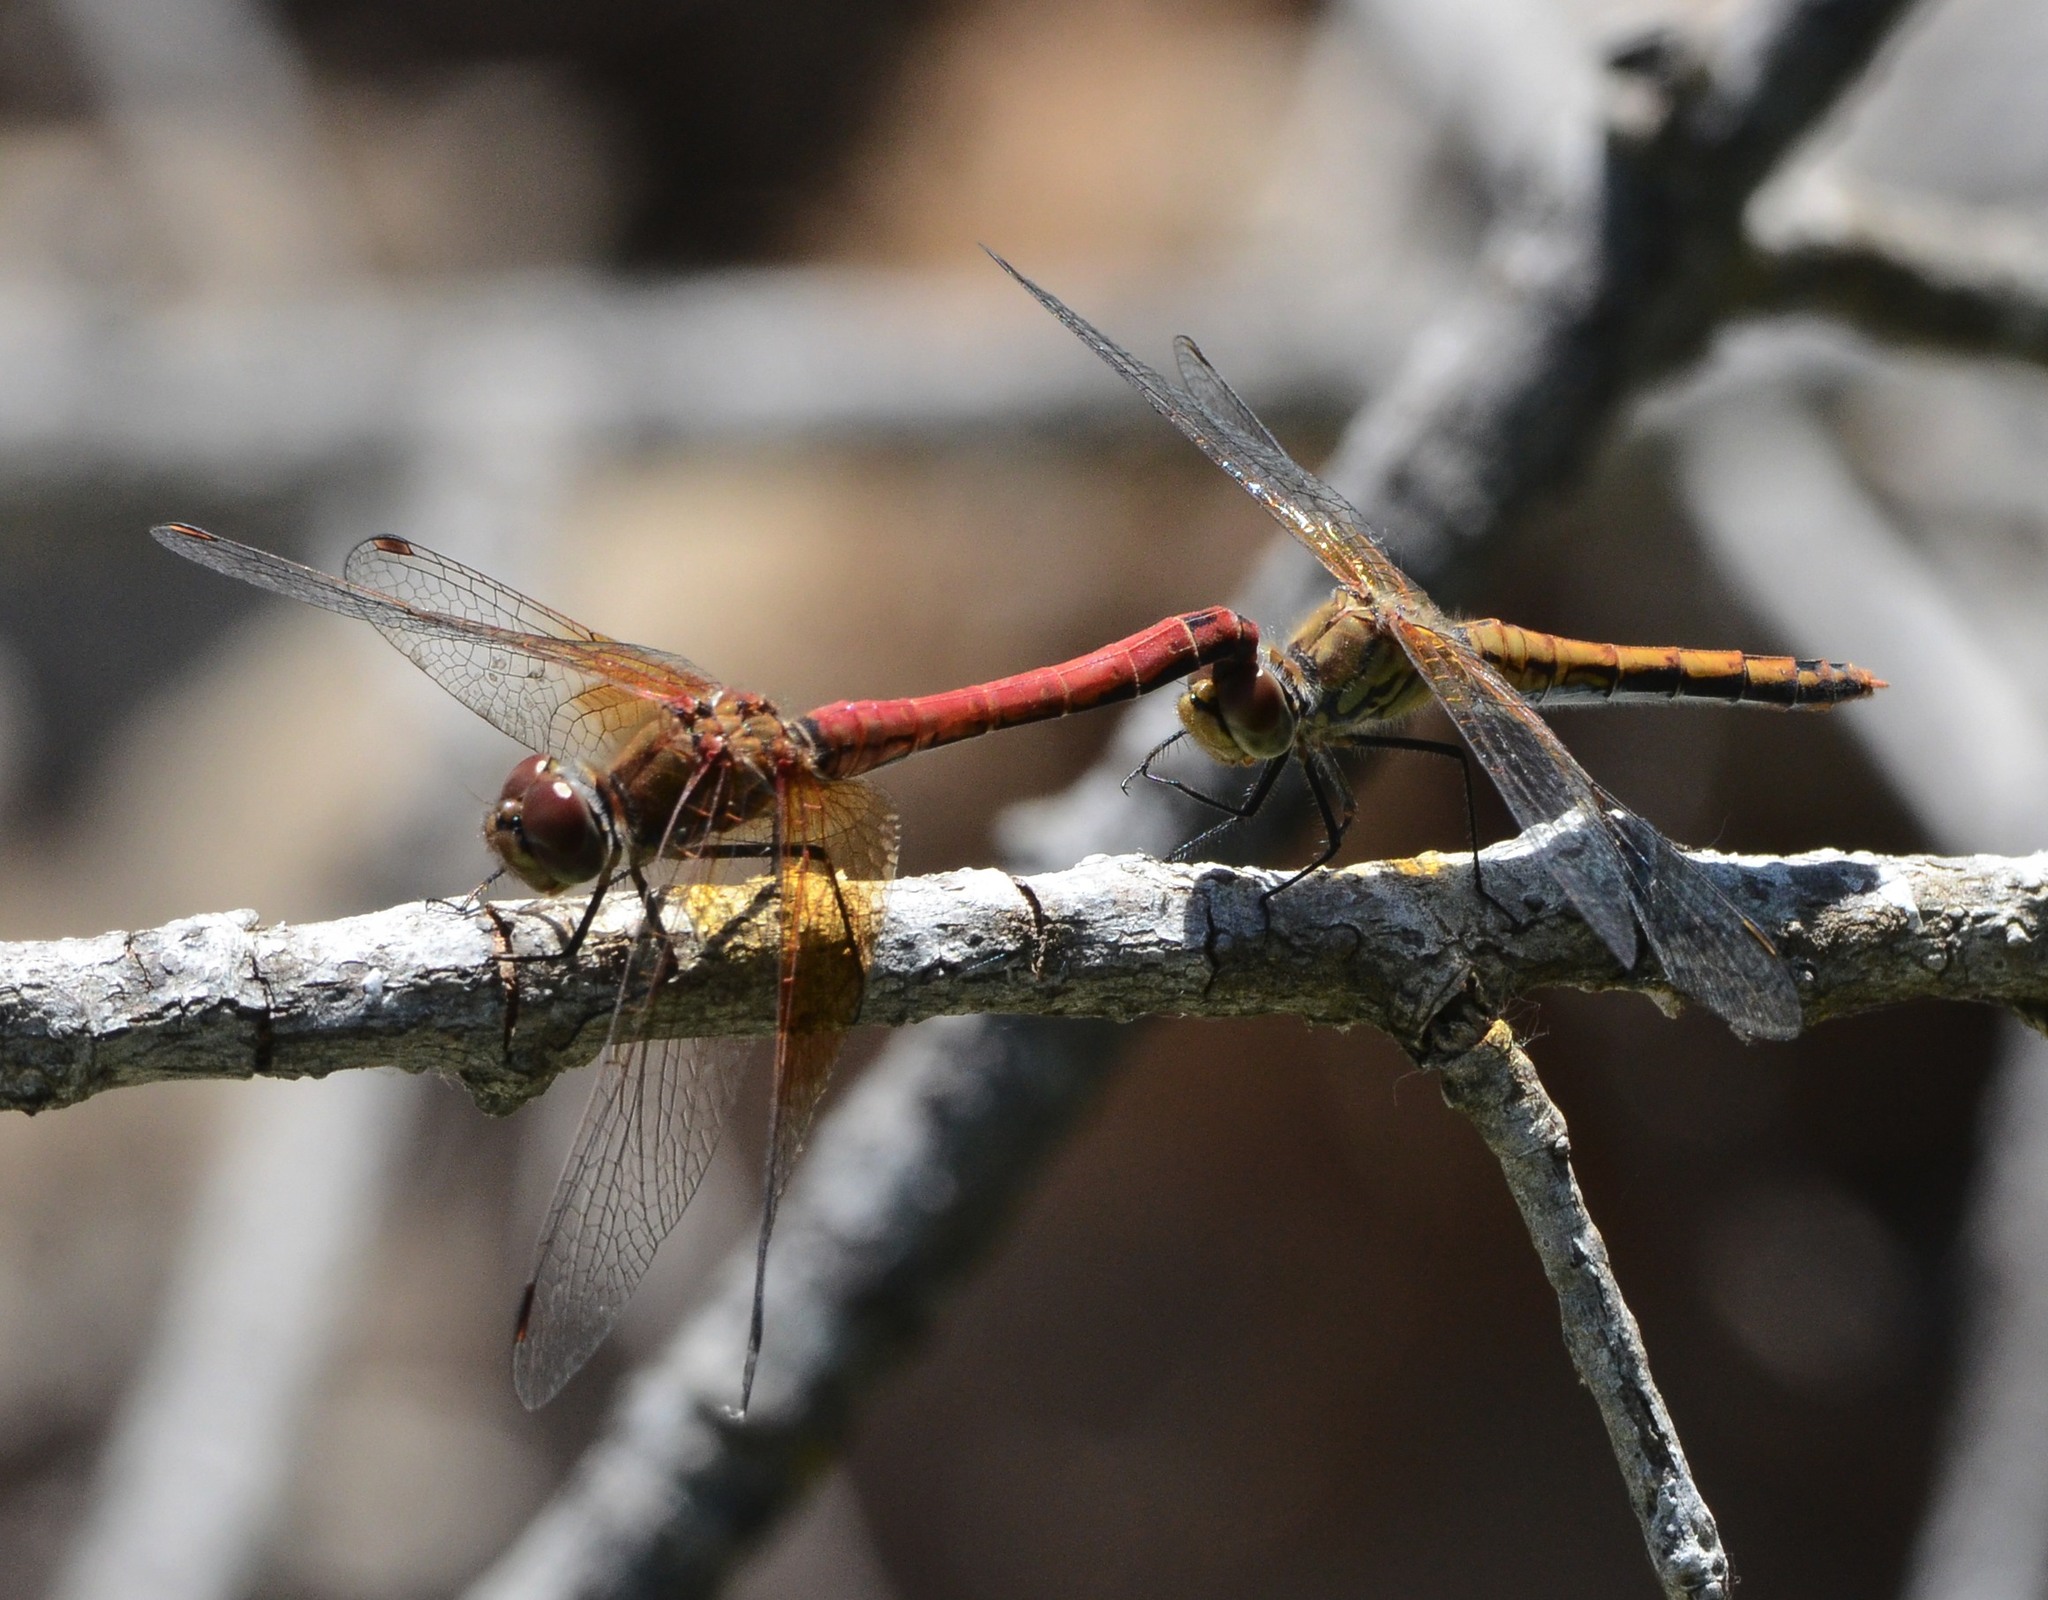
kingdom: Animalia
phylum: Arthropoda
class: Insecta
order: Odonata
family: Libellulidae
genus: Sympetrum
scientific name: Sympetrum semicinctum
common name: Band-winged meadowhawk
